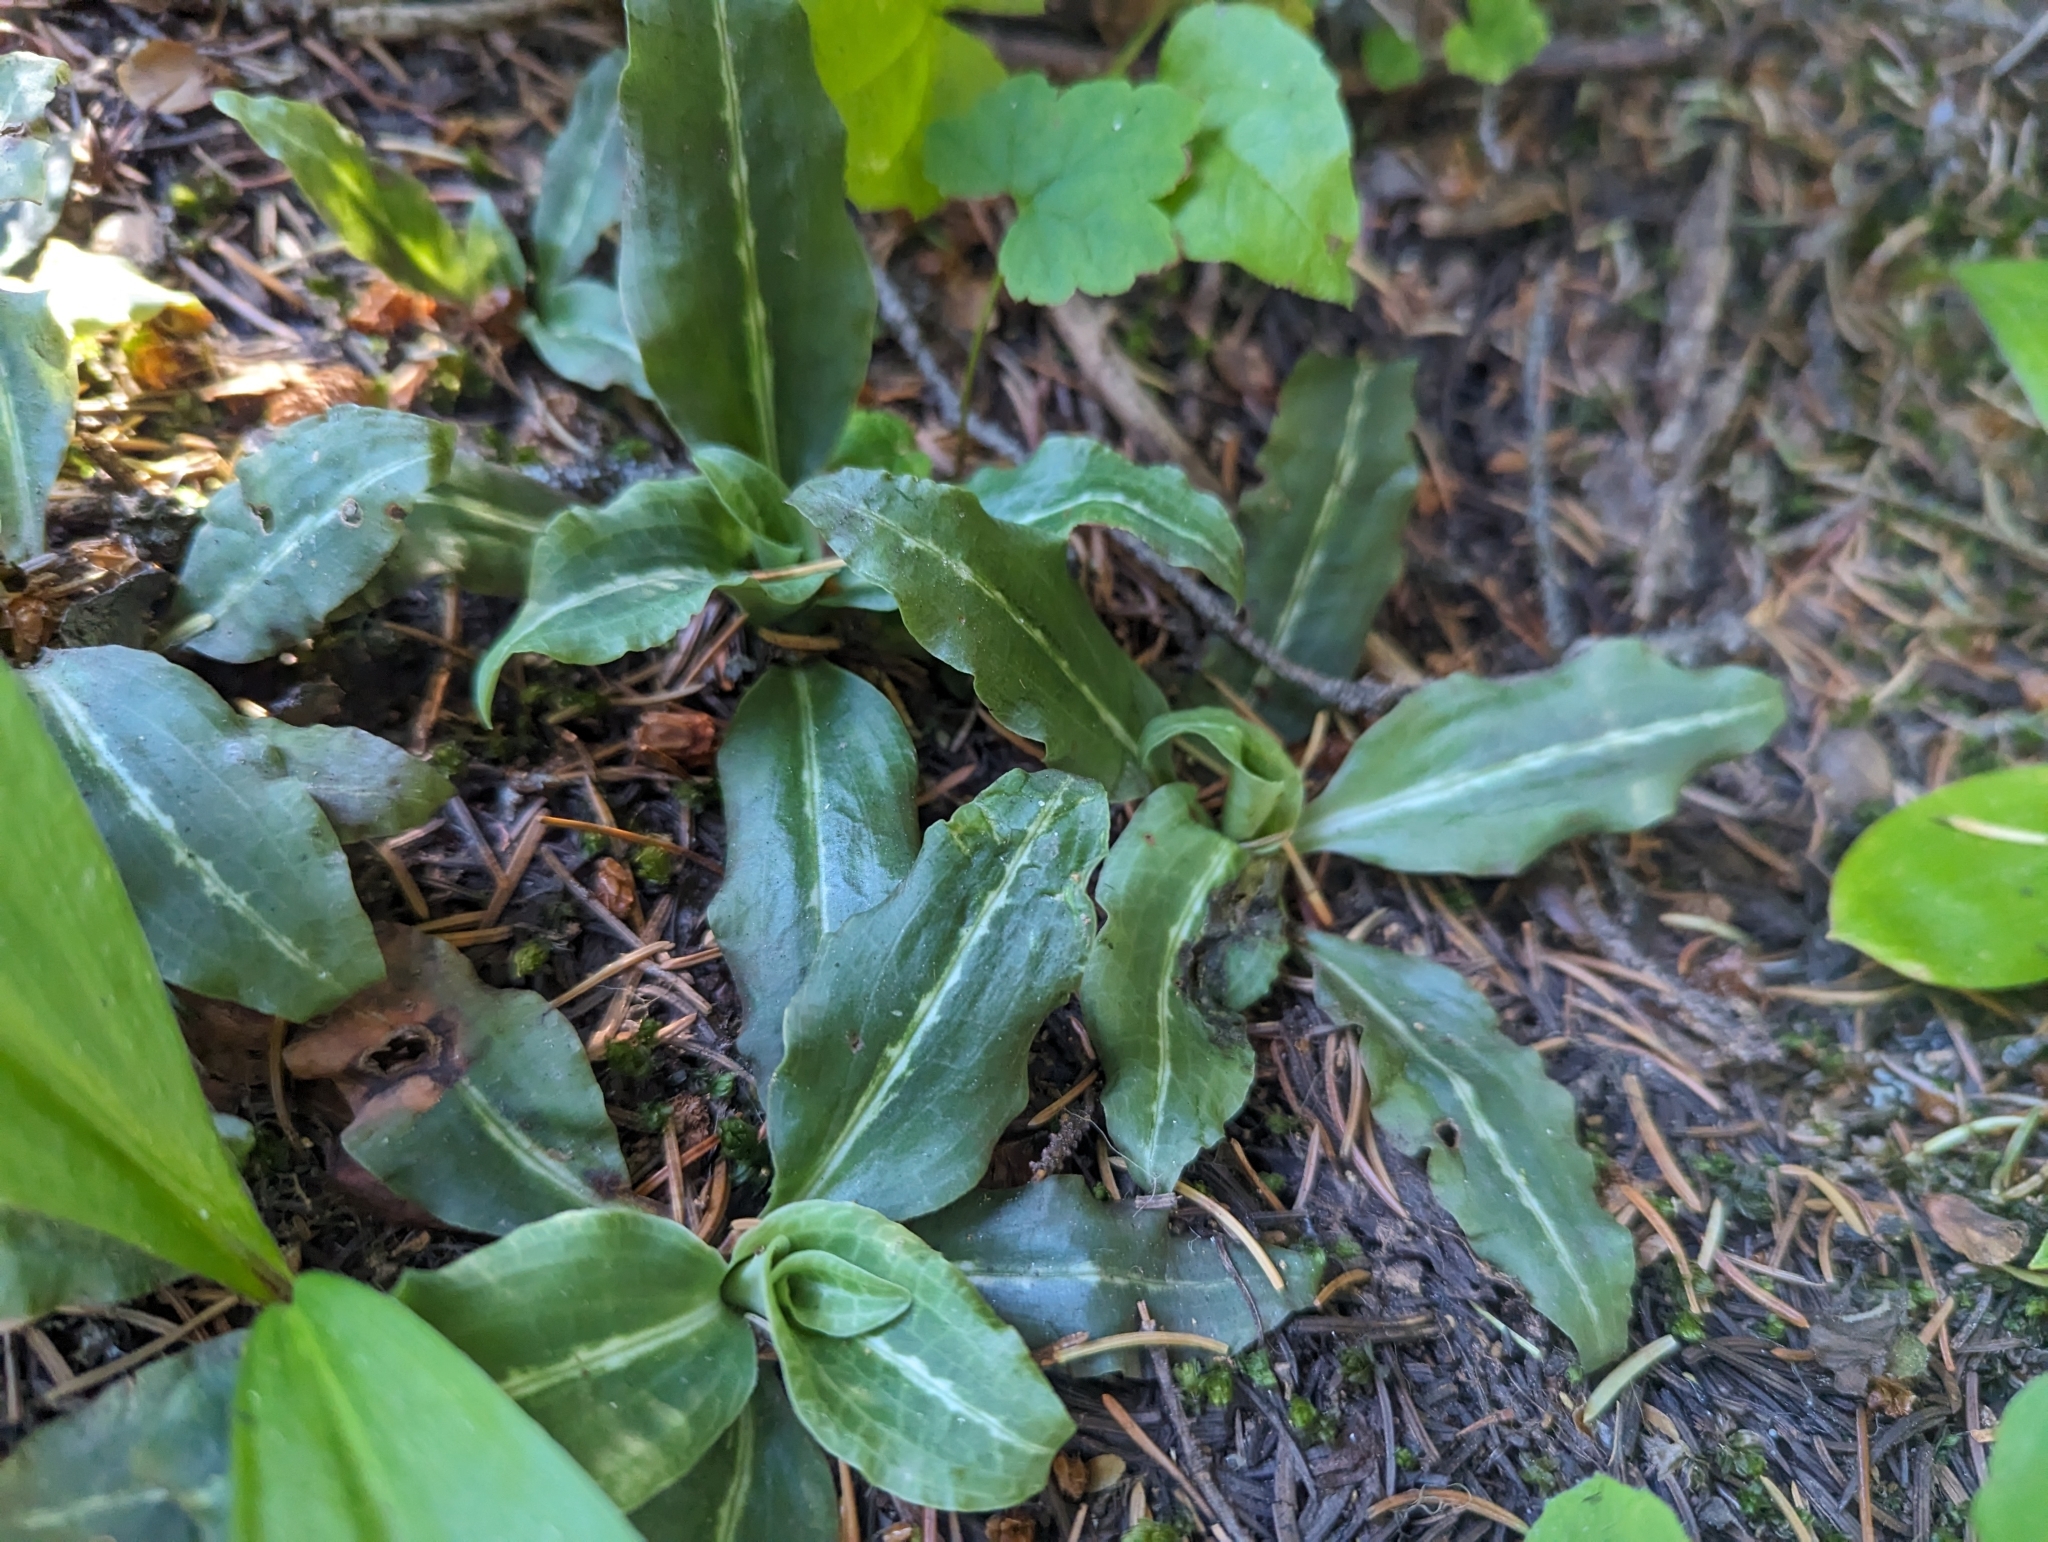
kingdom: Plantae
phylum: Tracheophyta
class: Liliopsida
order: Asparagales
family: Orchidaceae
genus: Goodyera
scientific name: Goodyera oblongifolia
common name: Giant rattlesnake-plantain
